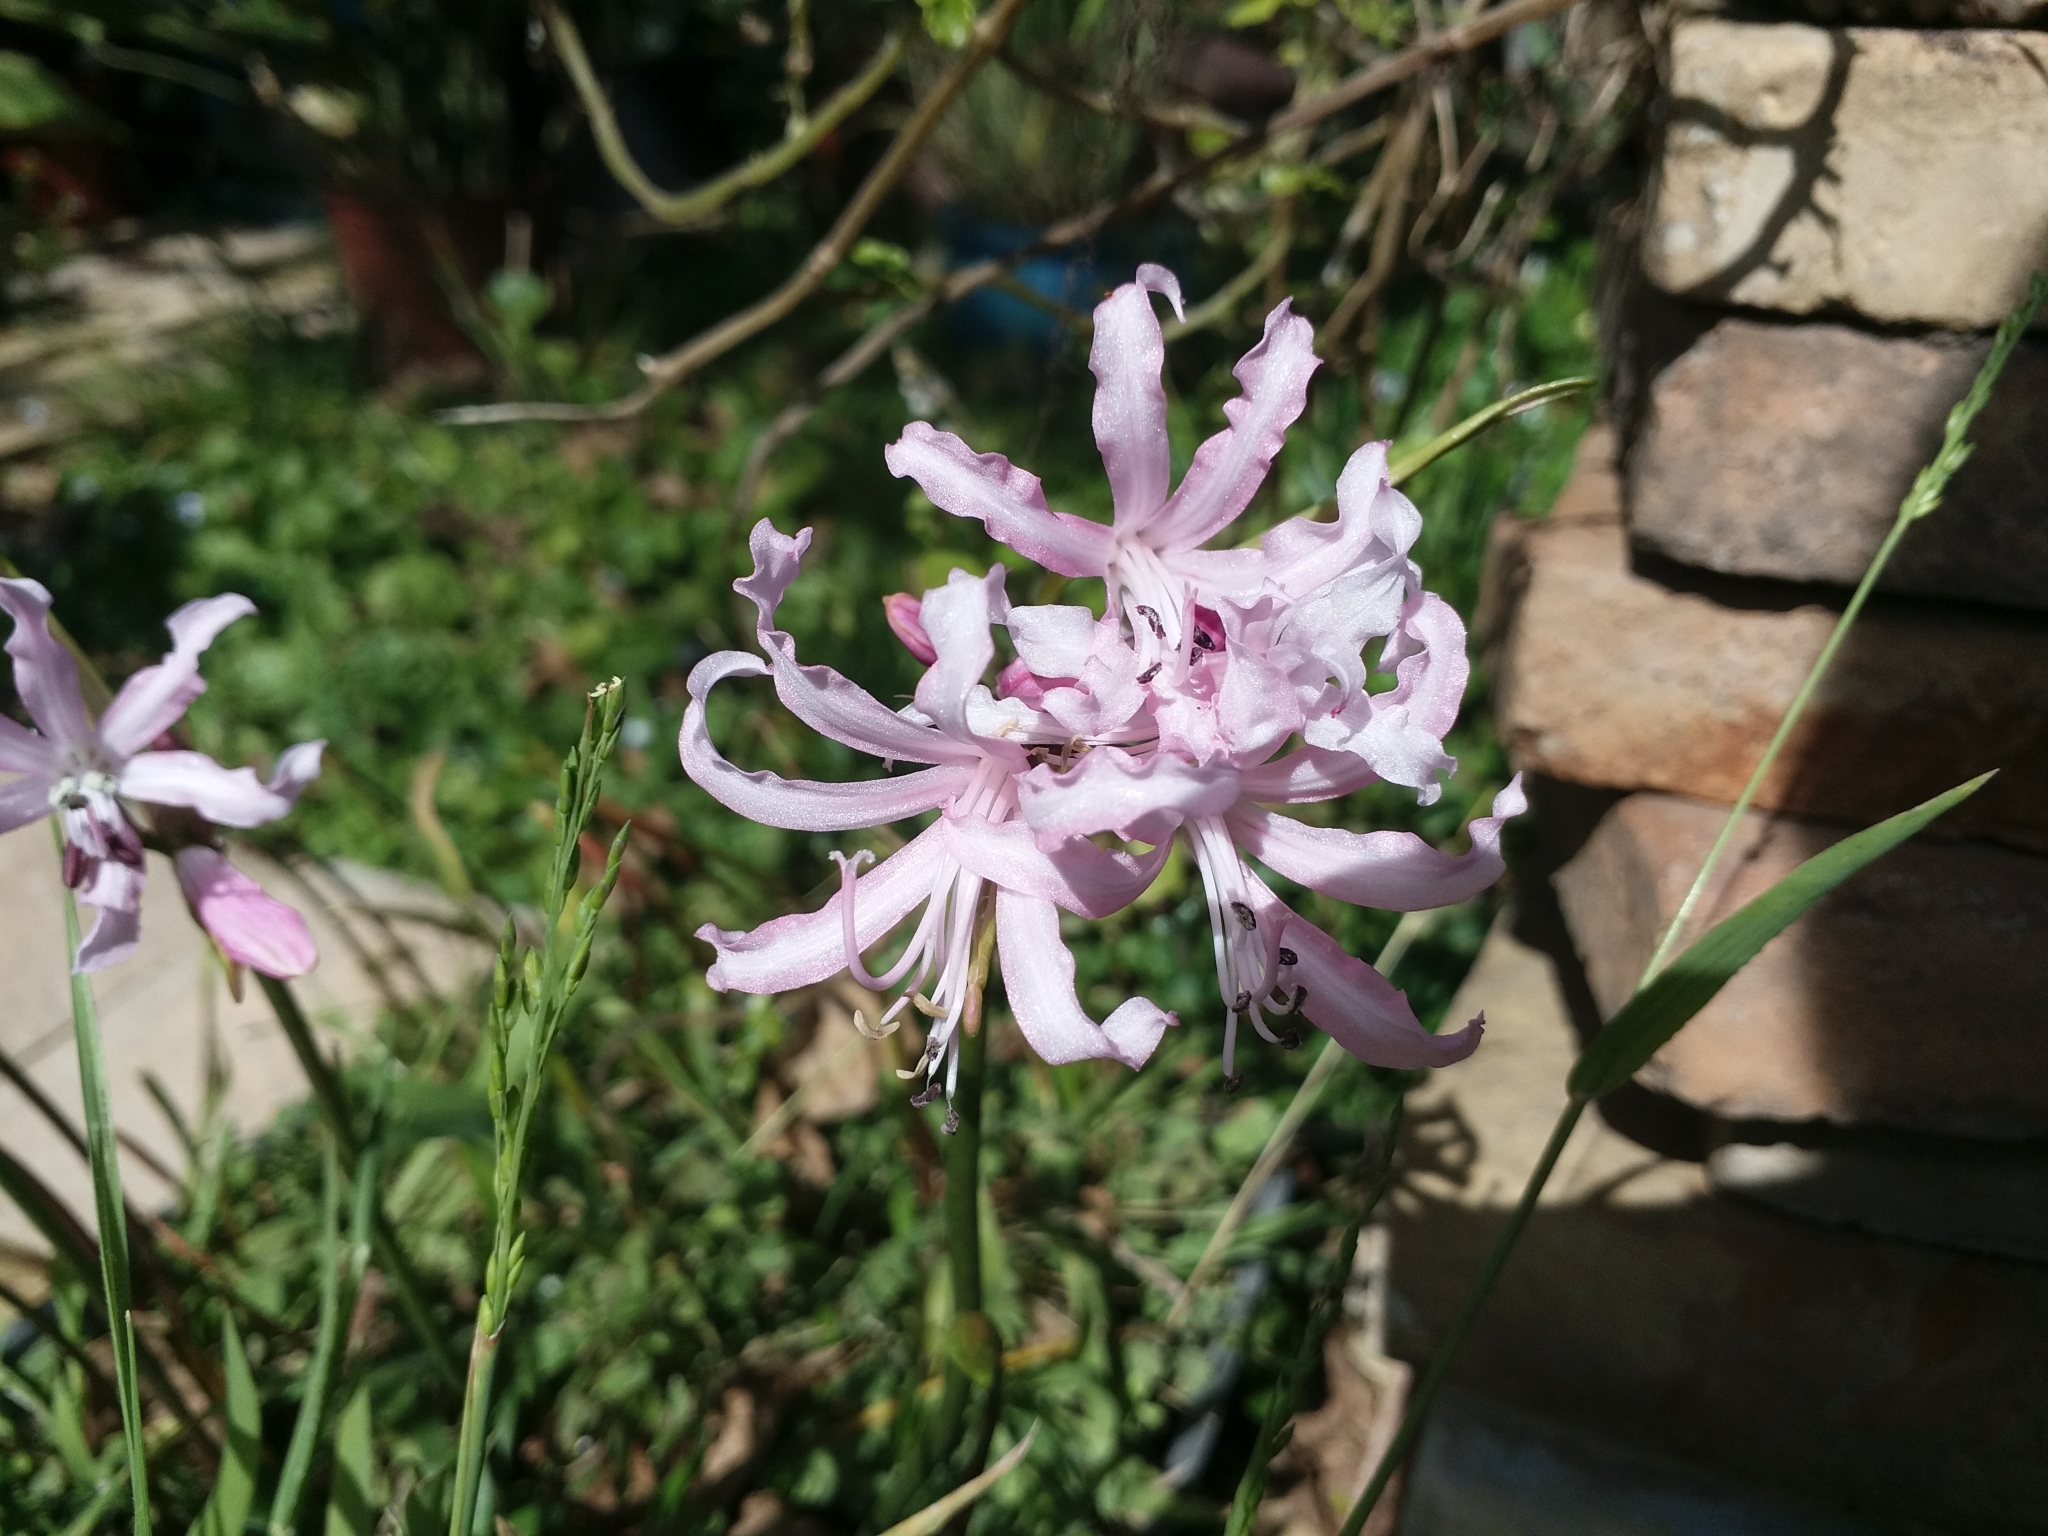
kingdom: Plantae
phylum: Tracheophyta
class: Liliopsida
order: Asparagales
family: Amaryllidaceae
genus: Nerine
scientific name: Nerine humilis
